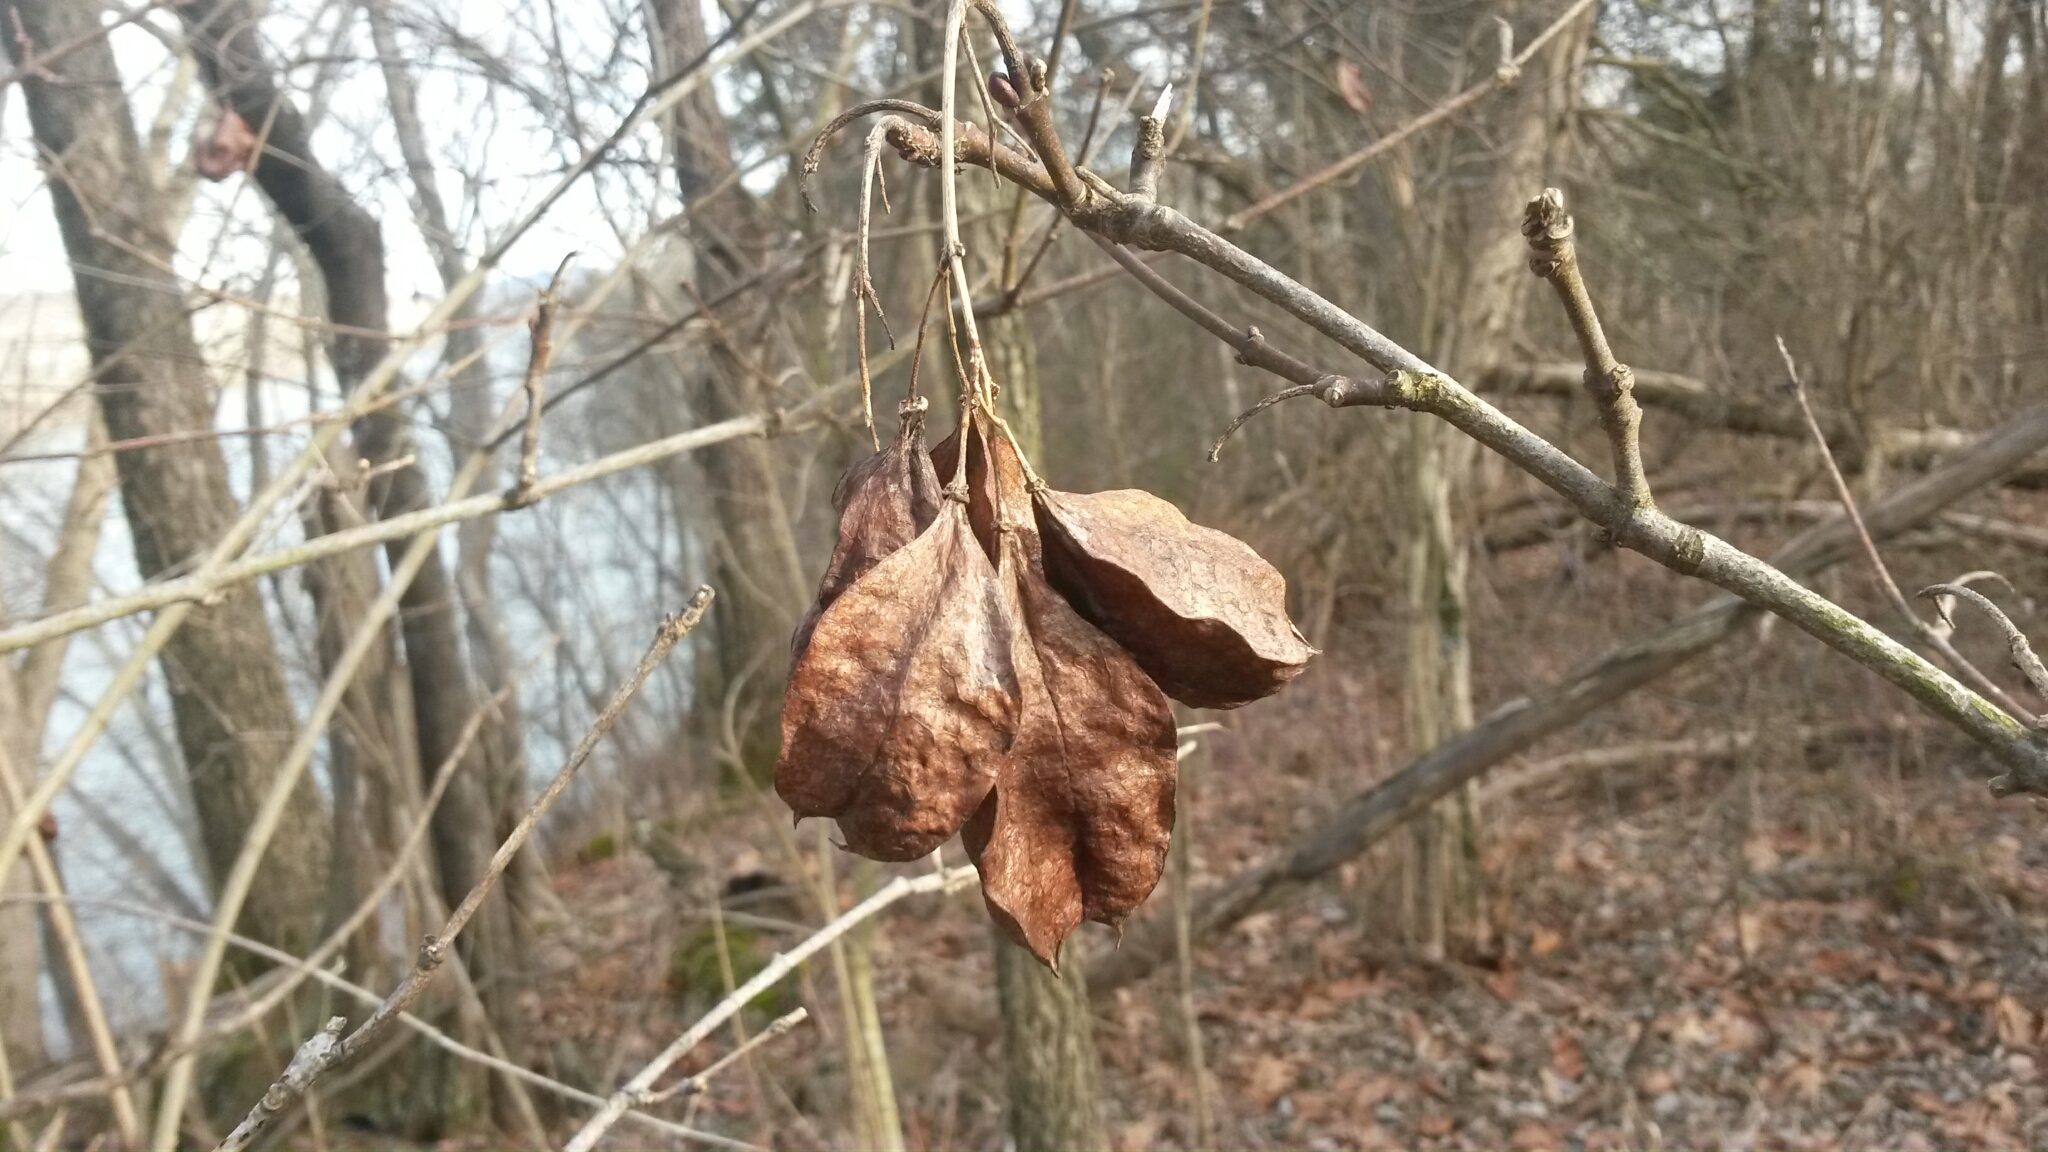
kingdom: Plantae
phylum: Tracheophyta
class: Magnoliopsida
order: Crossosomatales
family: Staphyleaceae
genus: Staphylea
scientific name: Staphylea trifolia
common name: American bladdernut
